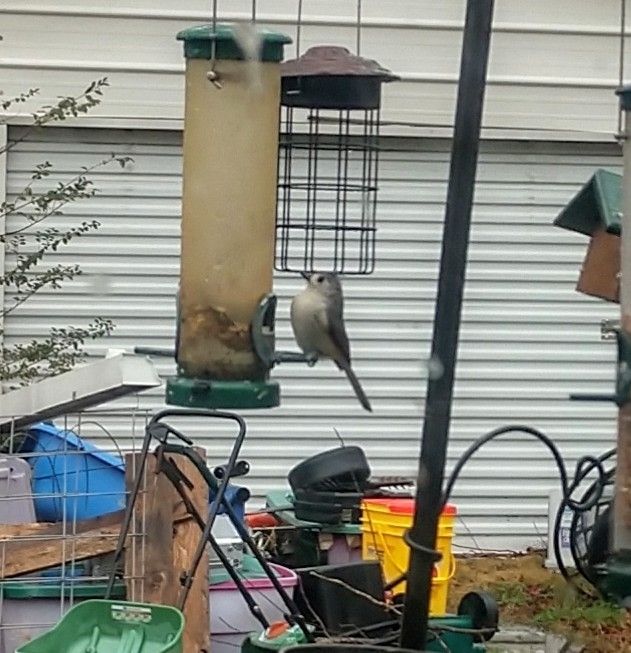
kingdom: Animalia
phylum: Chordata
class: Aves
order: Passeriformes
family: Paridae
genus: Baeolophus
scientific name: Baeolophus bicolor
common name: Tufted titmouse
